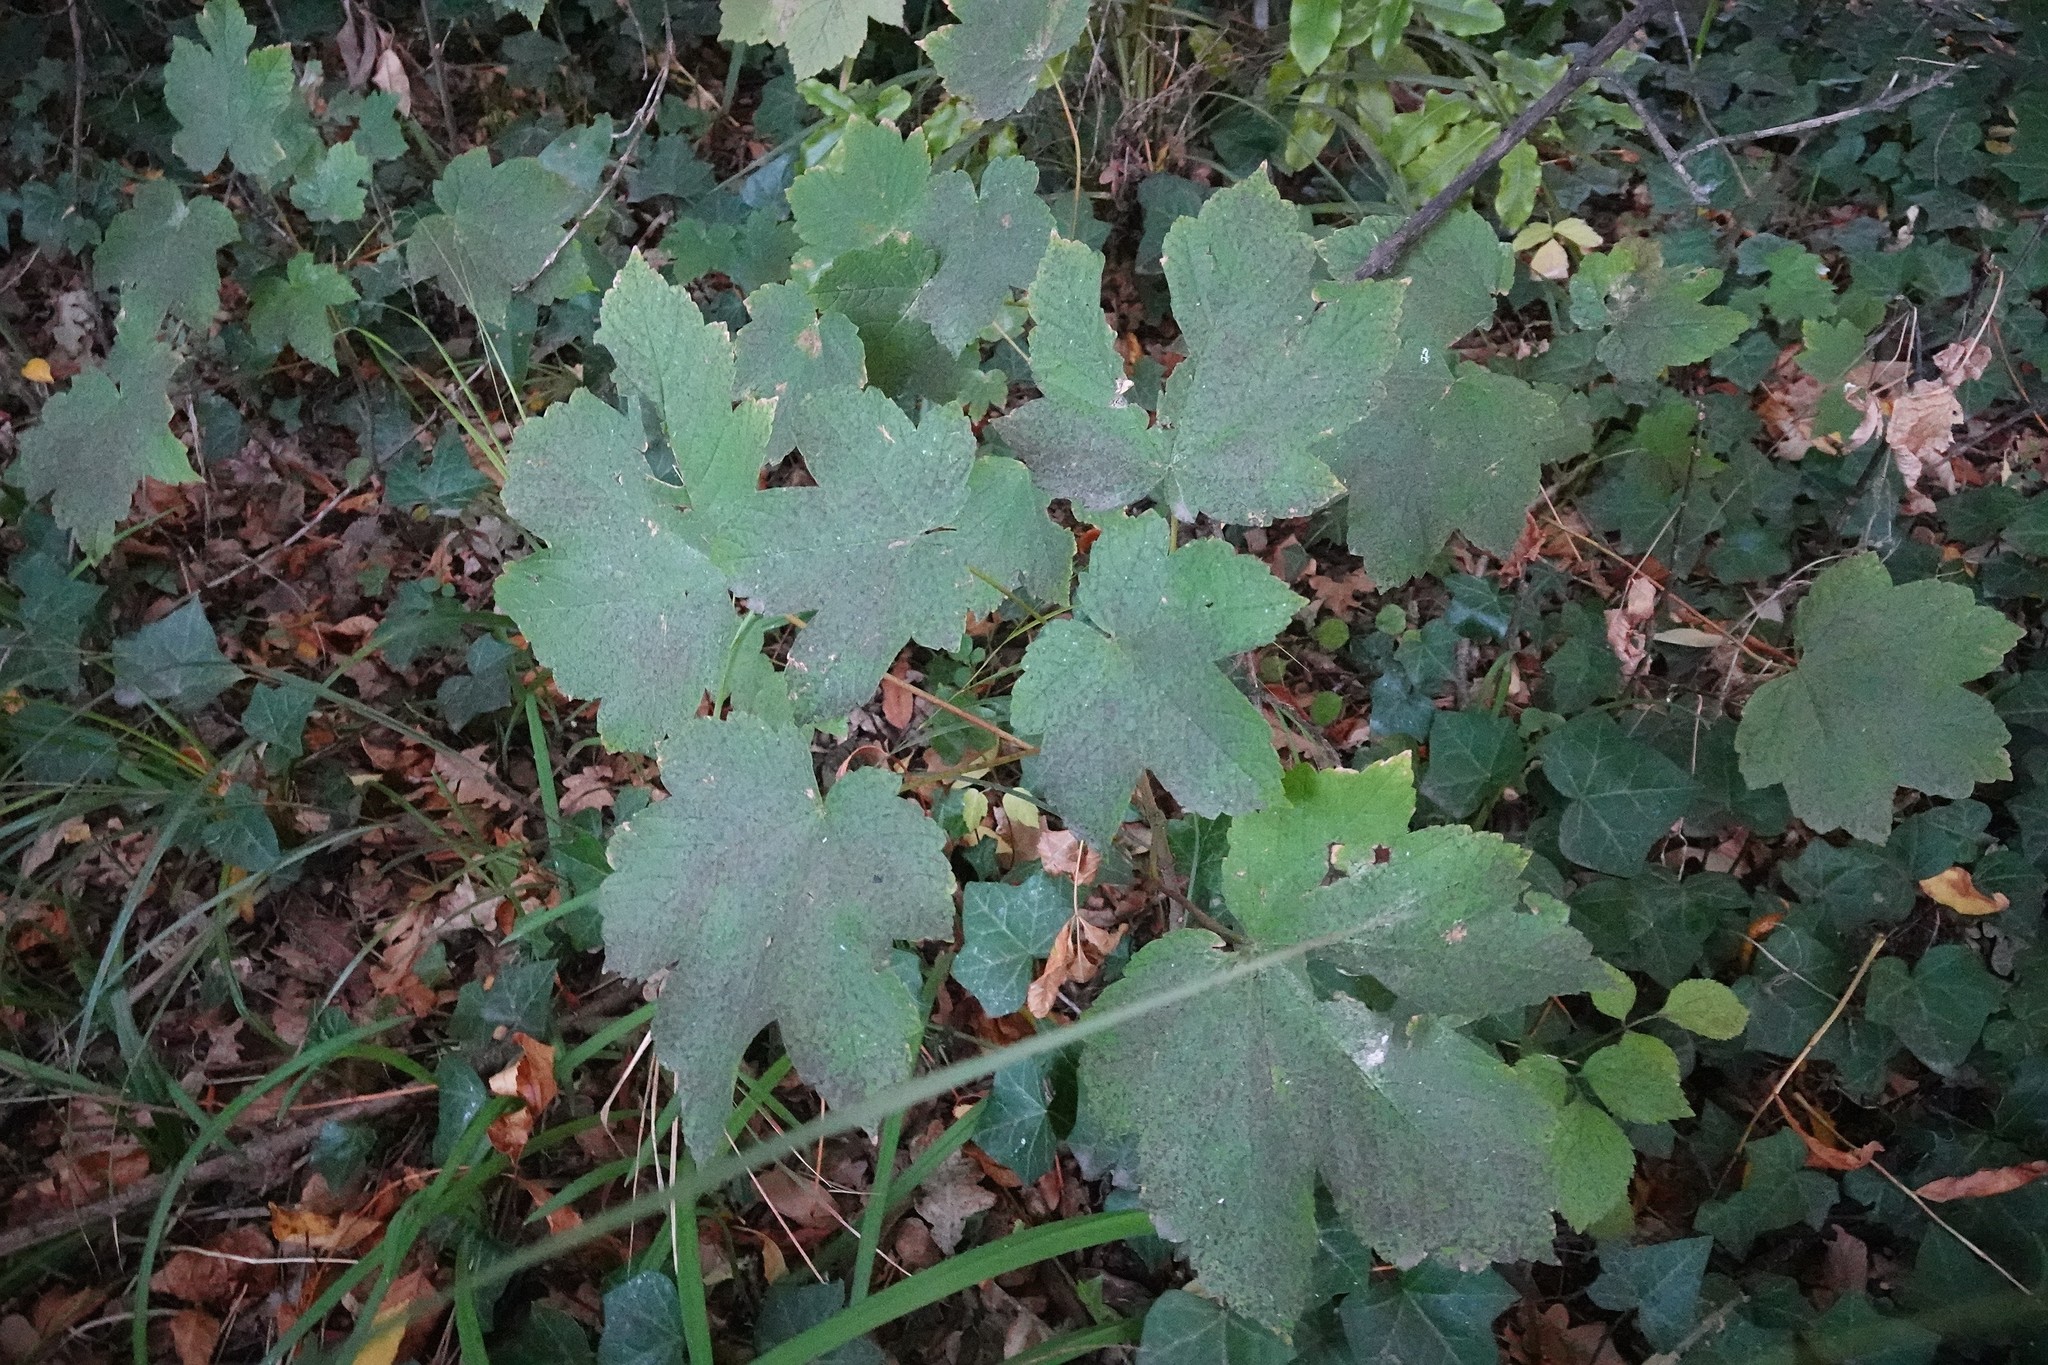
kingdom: Plantae
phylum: Tracheophyta
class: Magnoliopsida
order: Sapindales
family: Sapindaceae
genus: Acer
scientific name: Acer pseudoplatanus
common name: Sycamore
